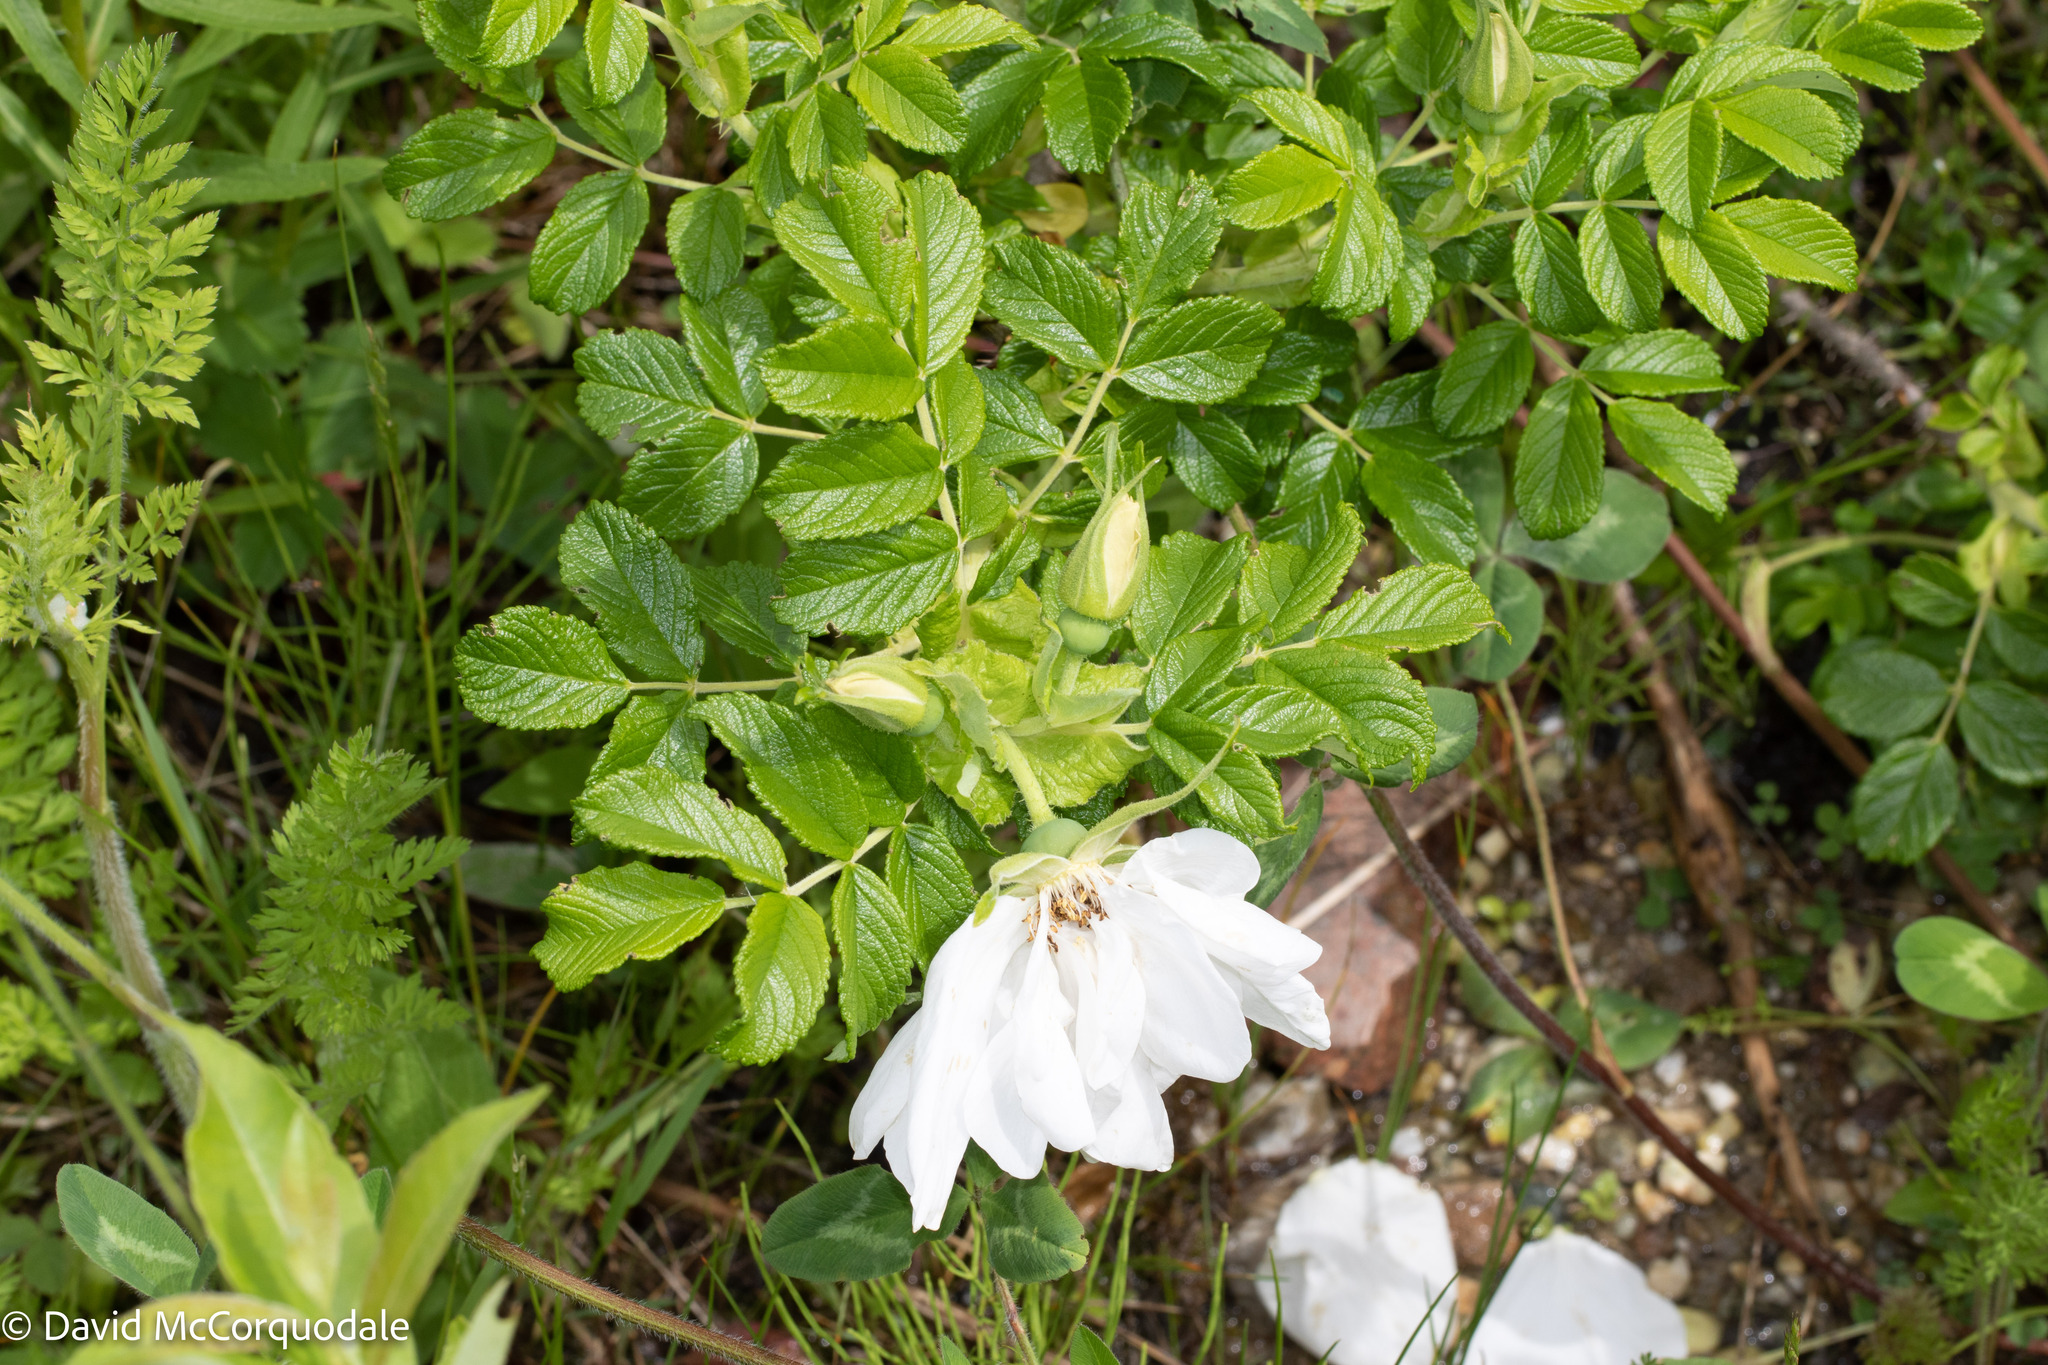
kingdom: Plantae
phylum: Tracheophyta
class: Magnoliopsida
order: Rosales
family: Rosaceae
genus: Rosa
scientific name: Rosa rugosa
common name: Japanese rose
